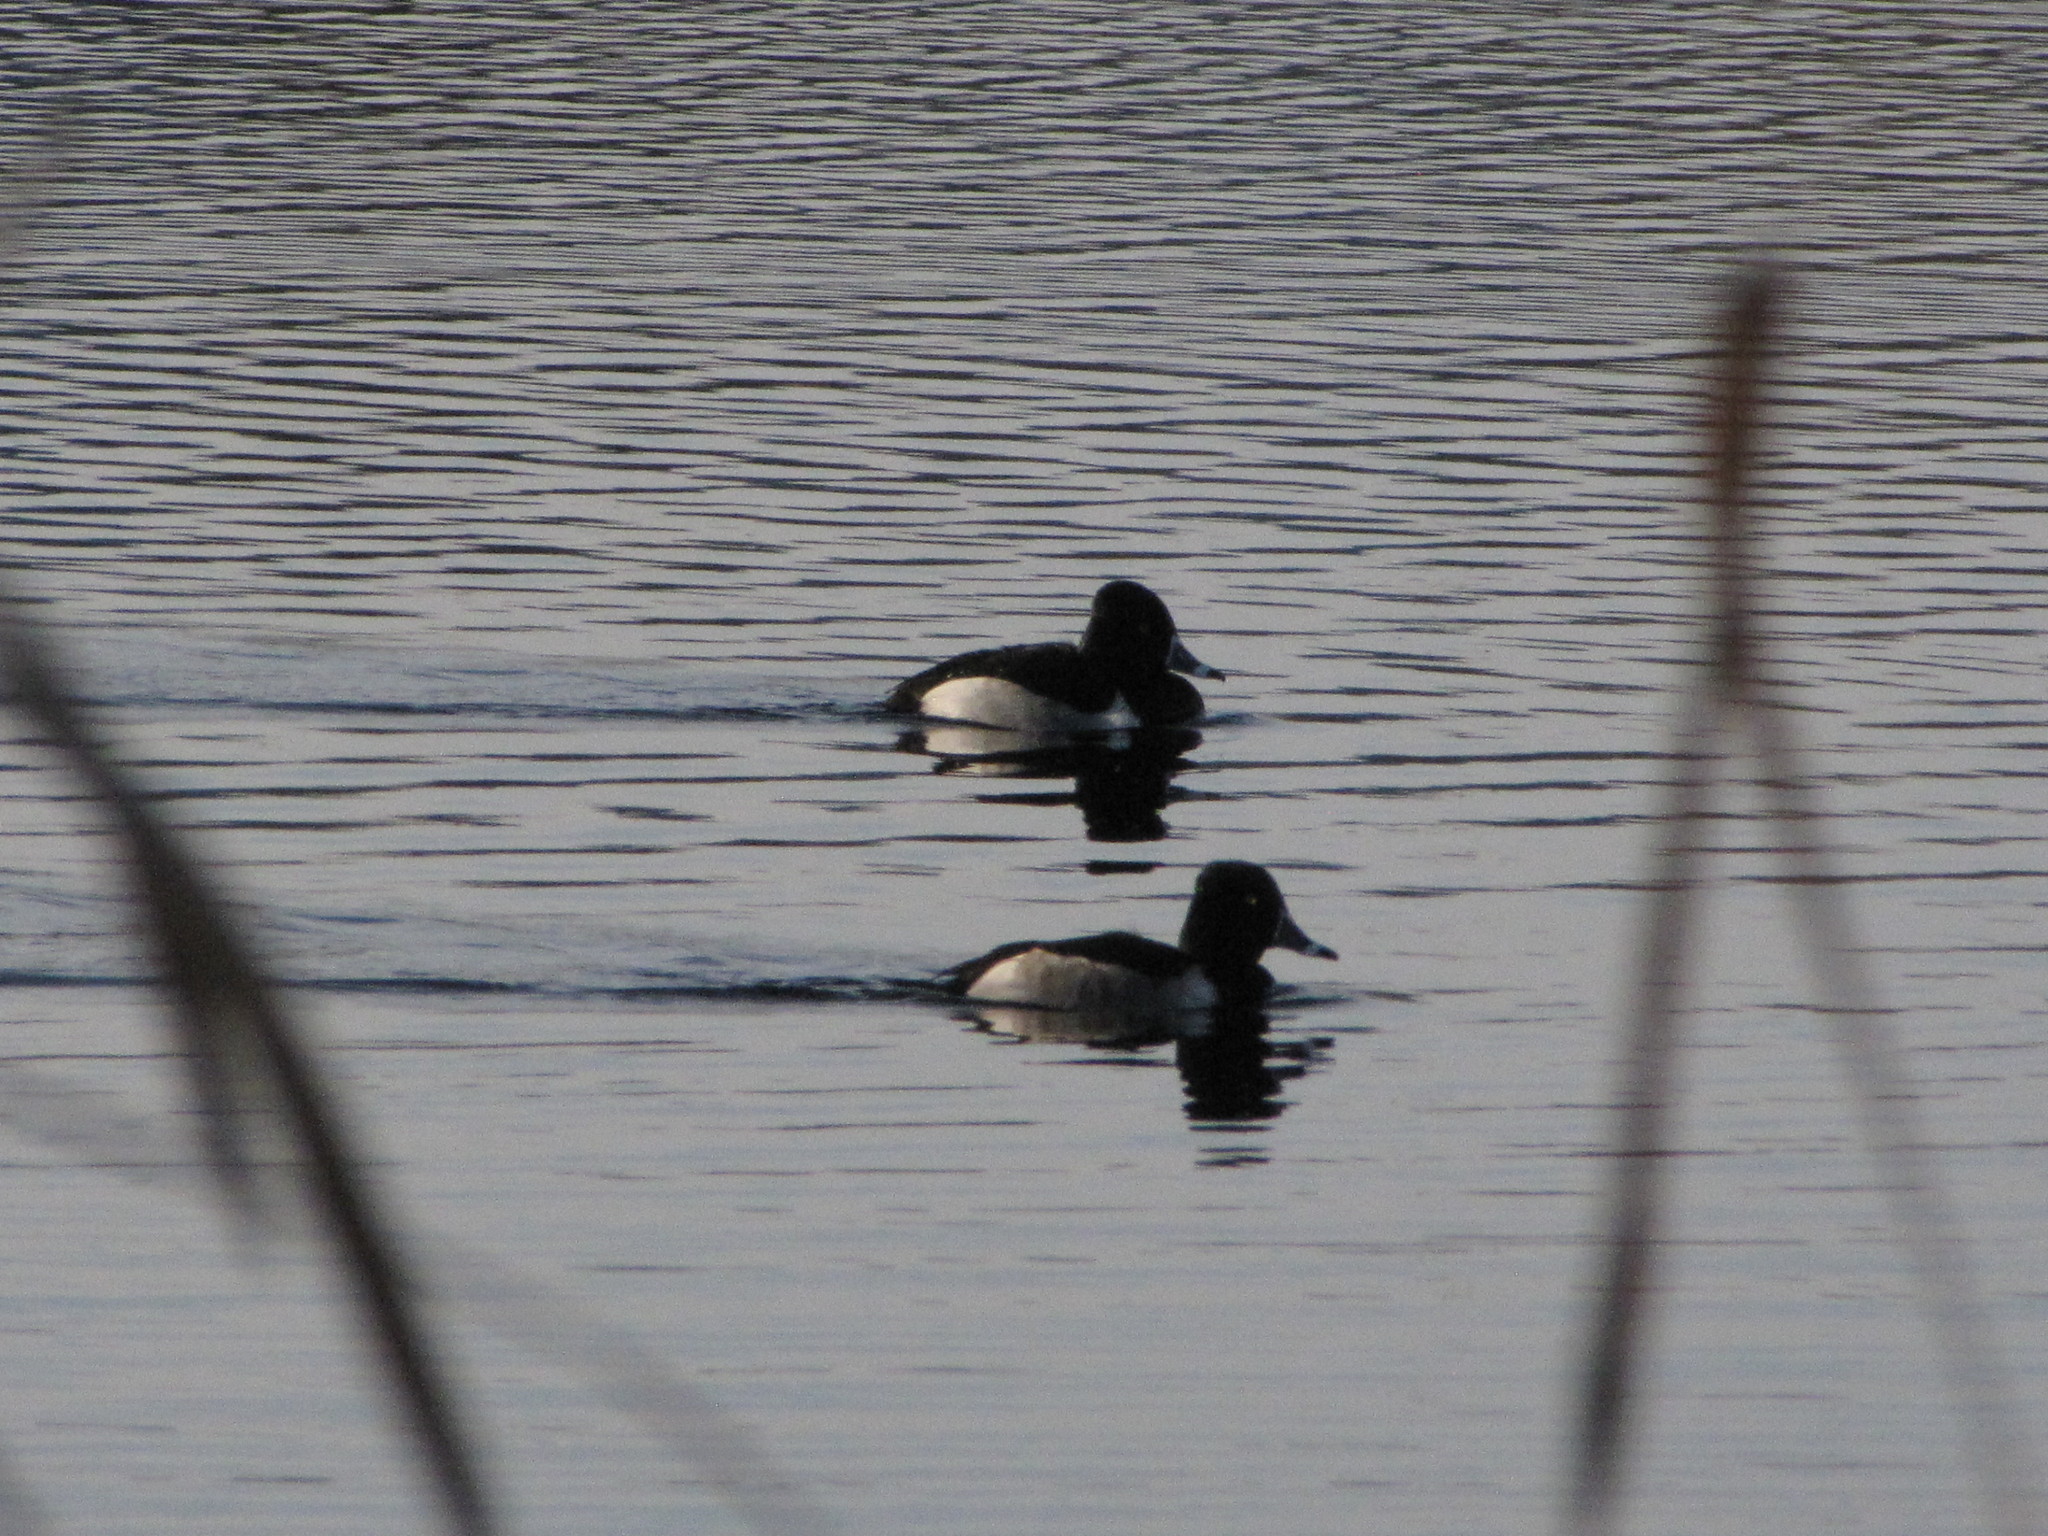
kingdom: Animalia
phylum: Chordata
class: Aves
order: Anseriformes
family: Anatidae
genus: Aythya
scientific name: Aythya collaris
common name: Ring-necked duck
